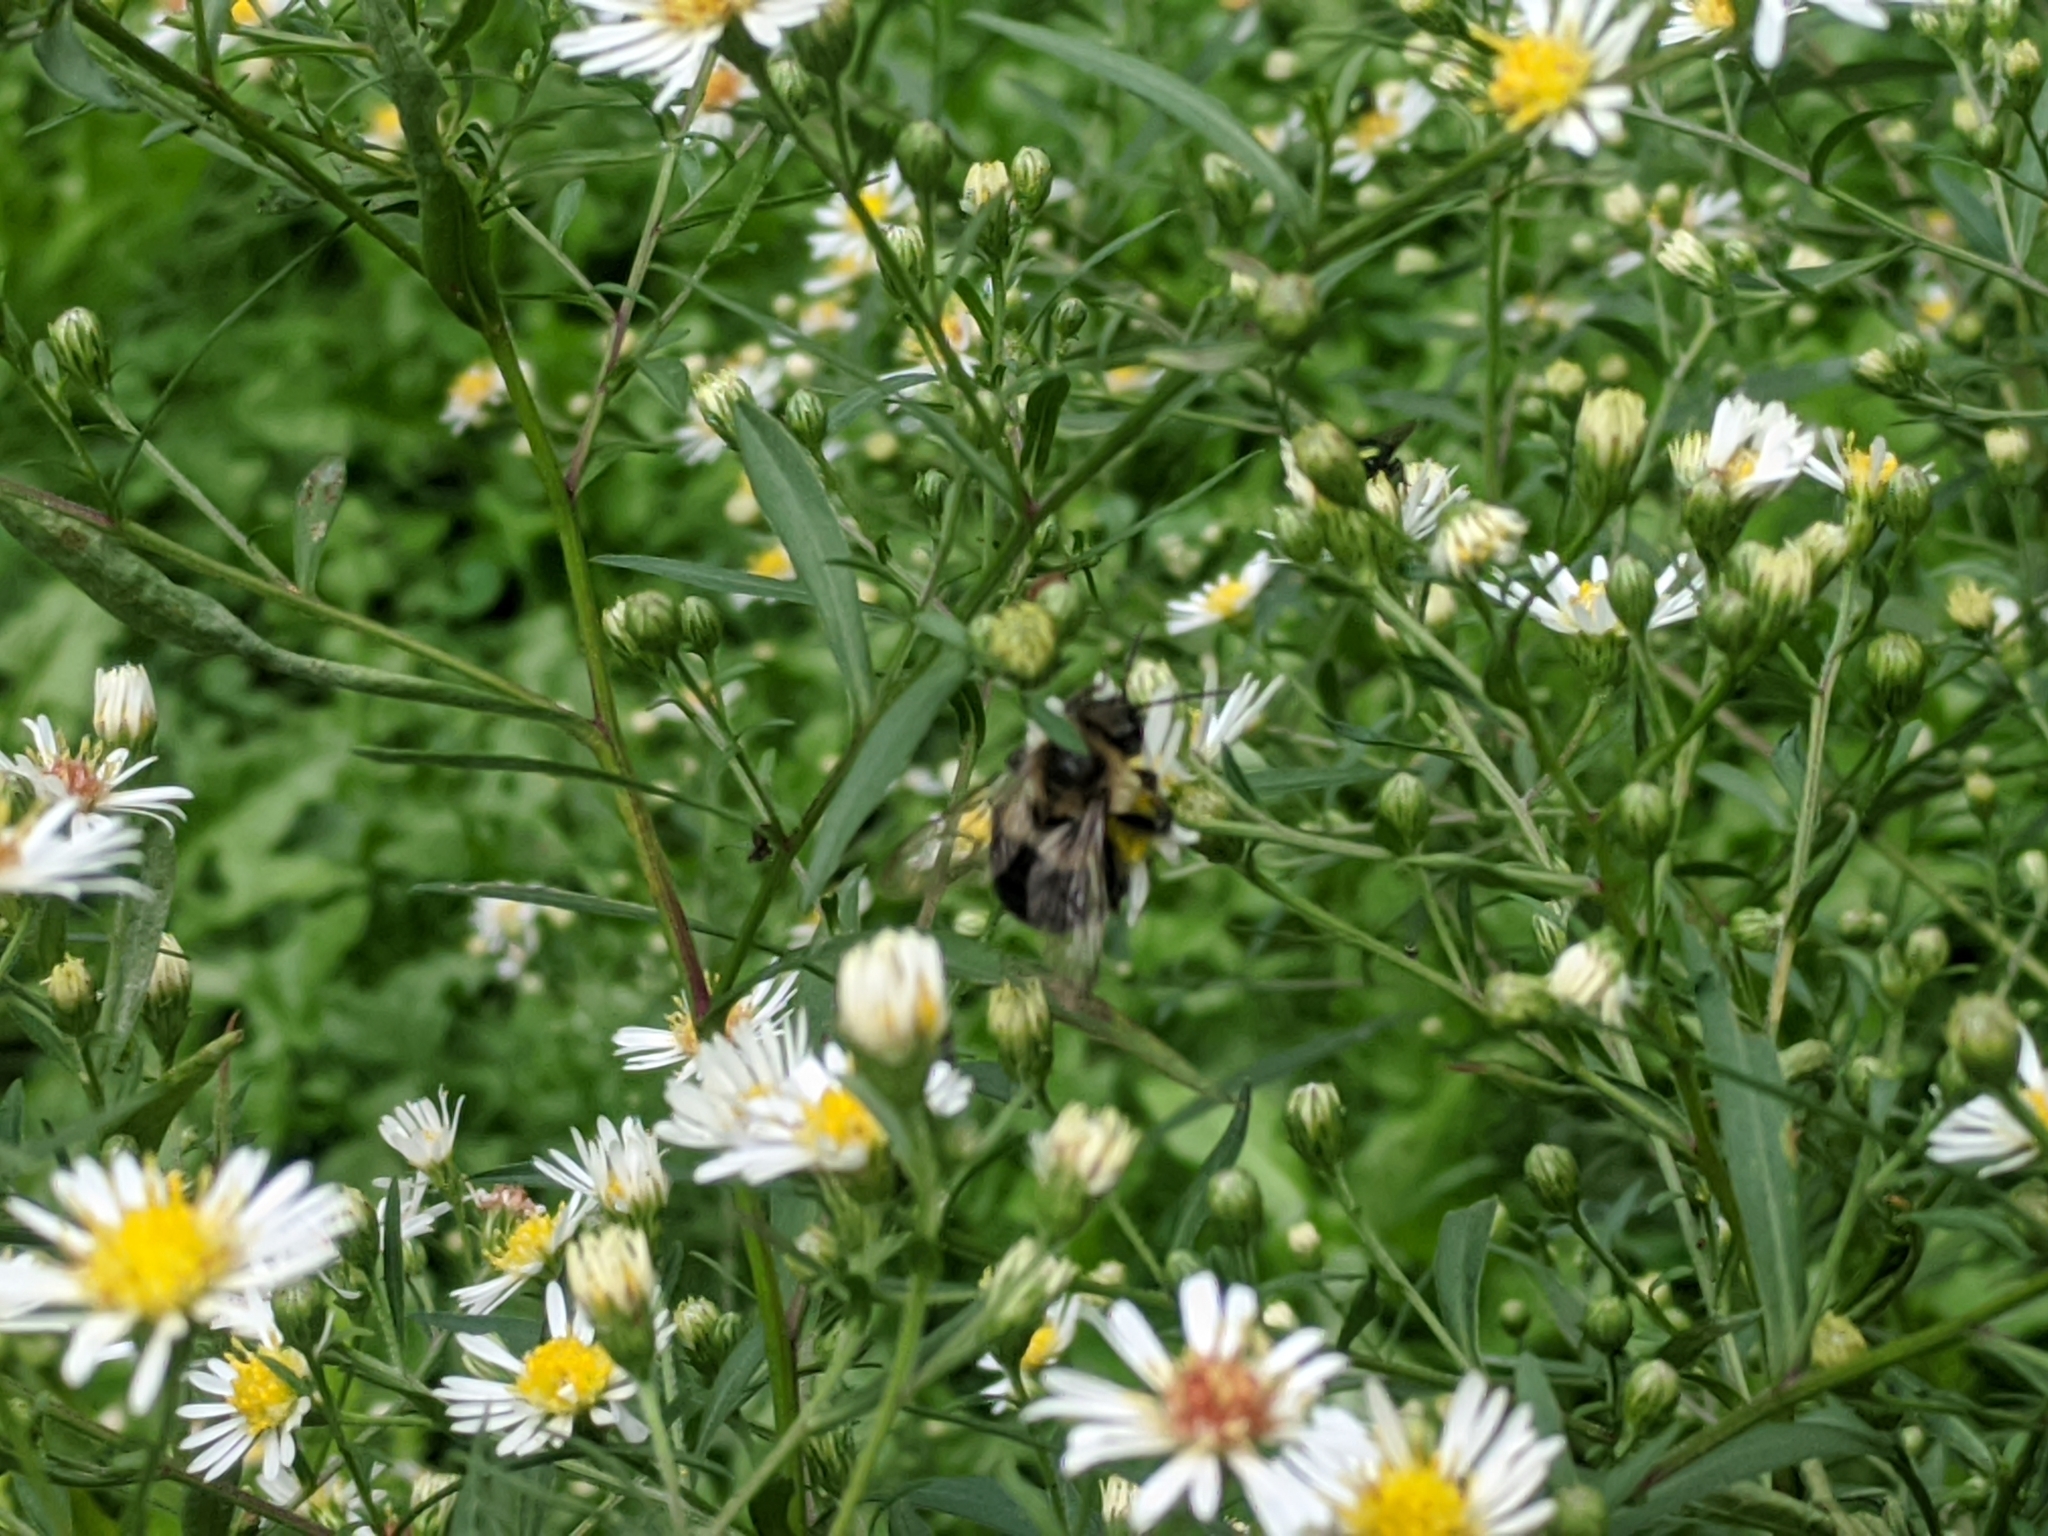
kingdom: Animalia
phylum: Arthropoda
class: Insecta
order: Hymenoptera
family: Apidae
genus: Bombus
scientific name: Bombus impatiens
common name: Common eastern bumble bee
